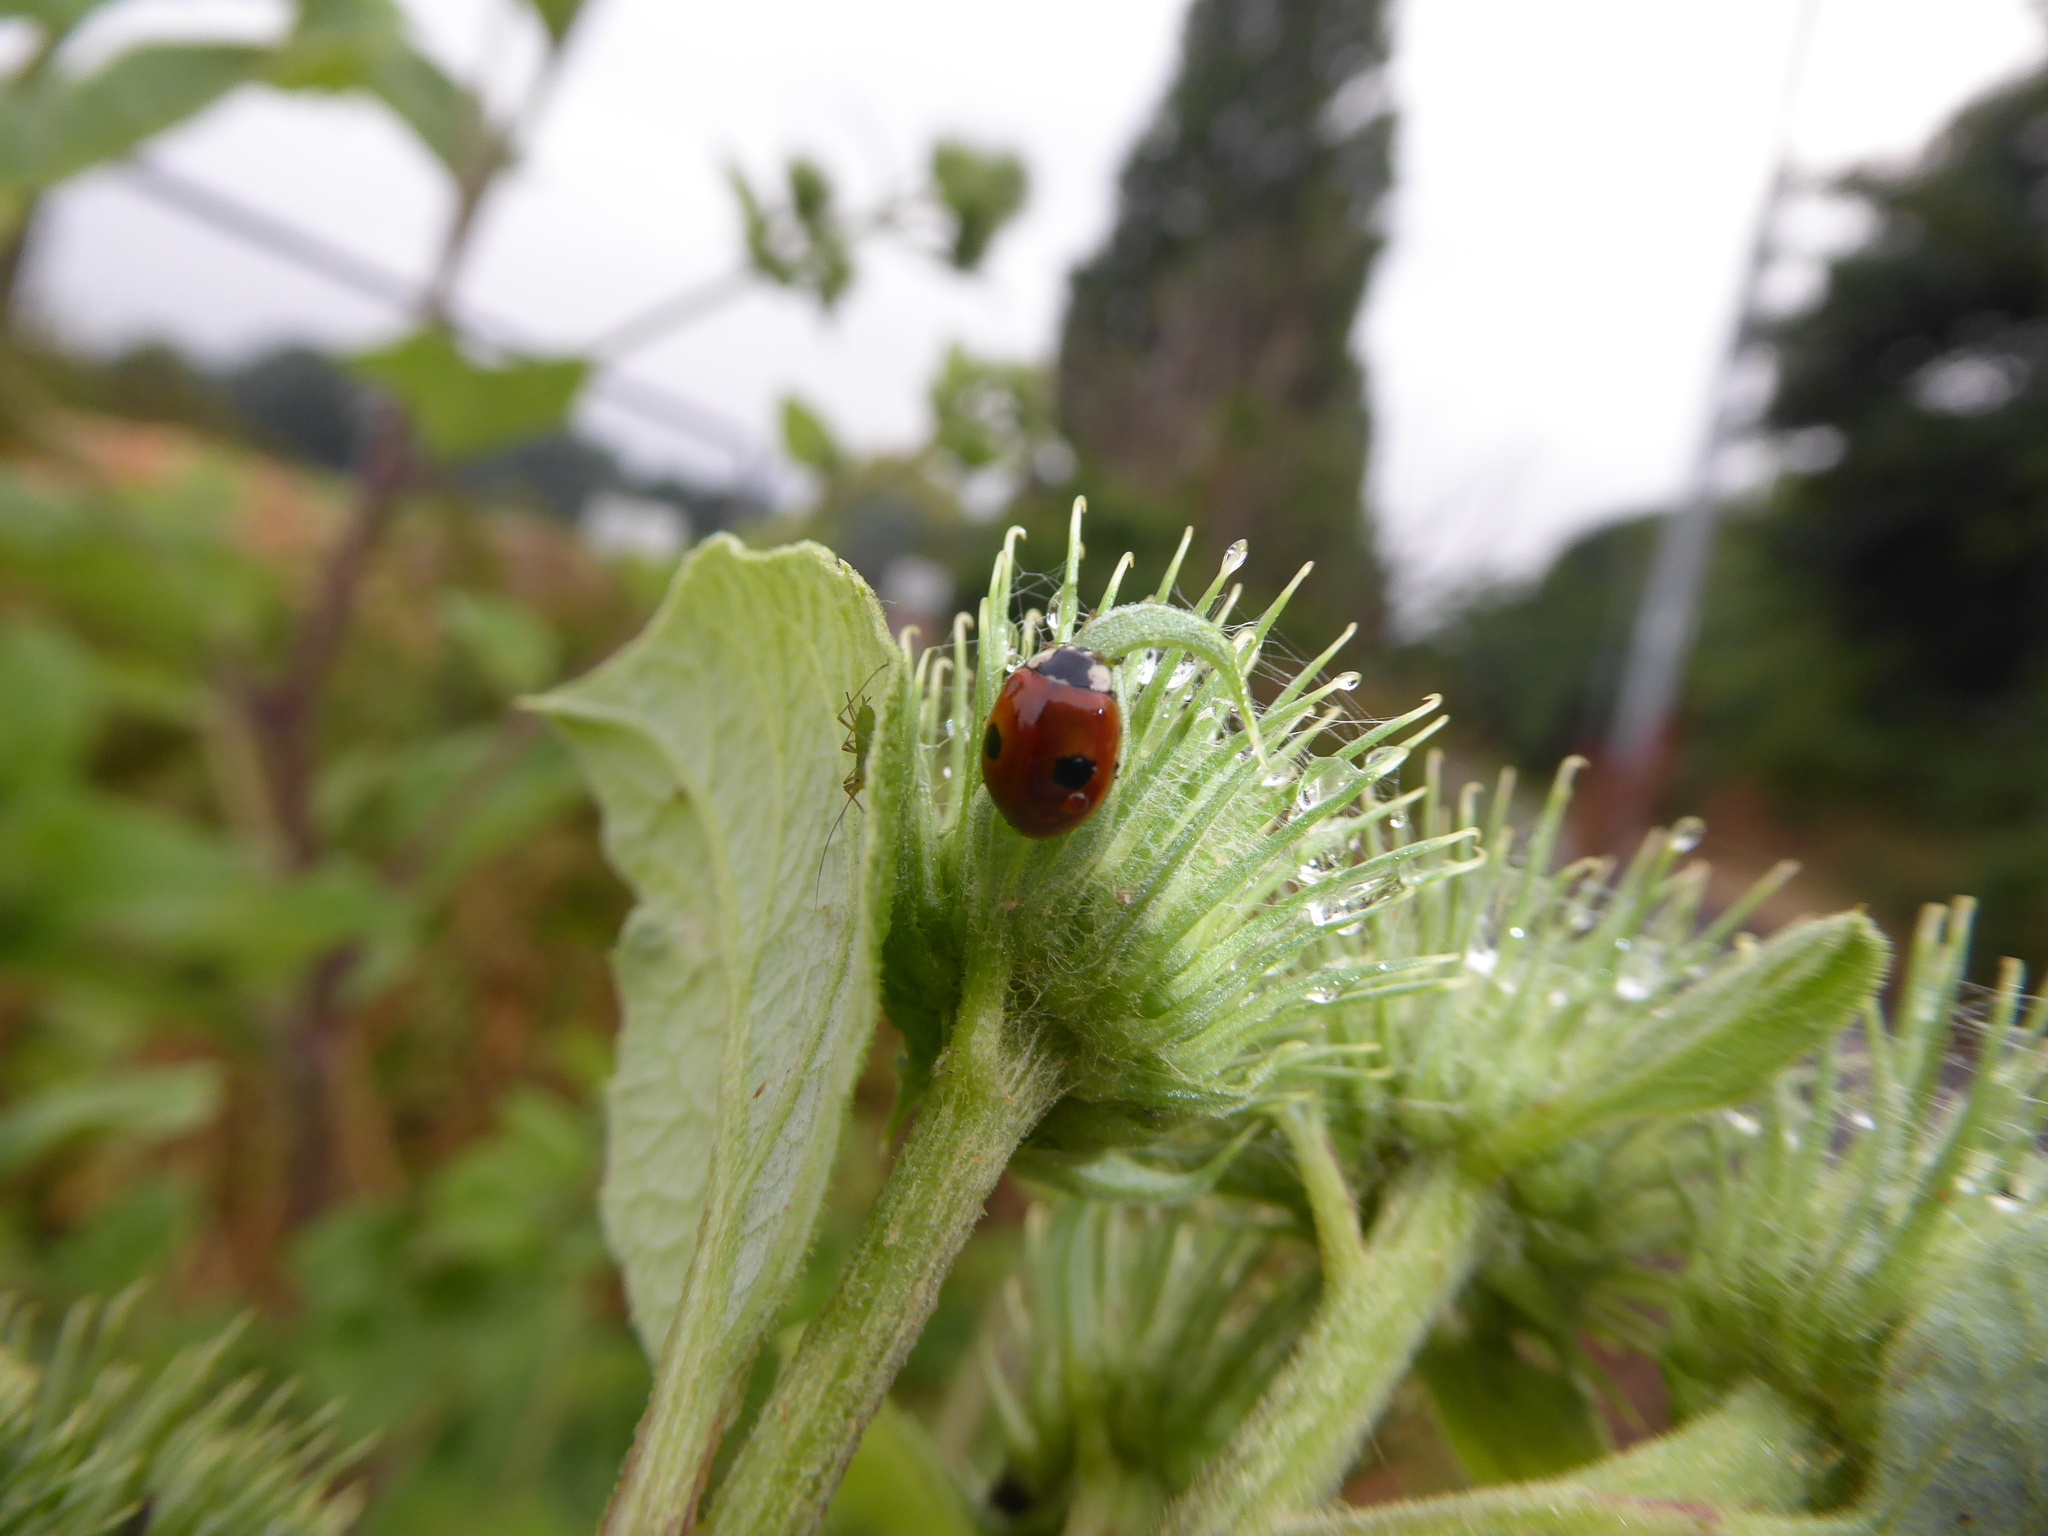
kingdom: Animalia
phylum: Arthropoda
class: Insecta
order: Coleoptera
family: Coccinellidae
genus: Adalia
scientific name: Adalia bipunctata
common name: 2-spot ladybird
